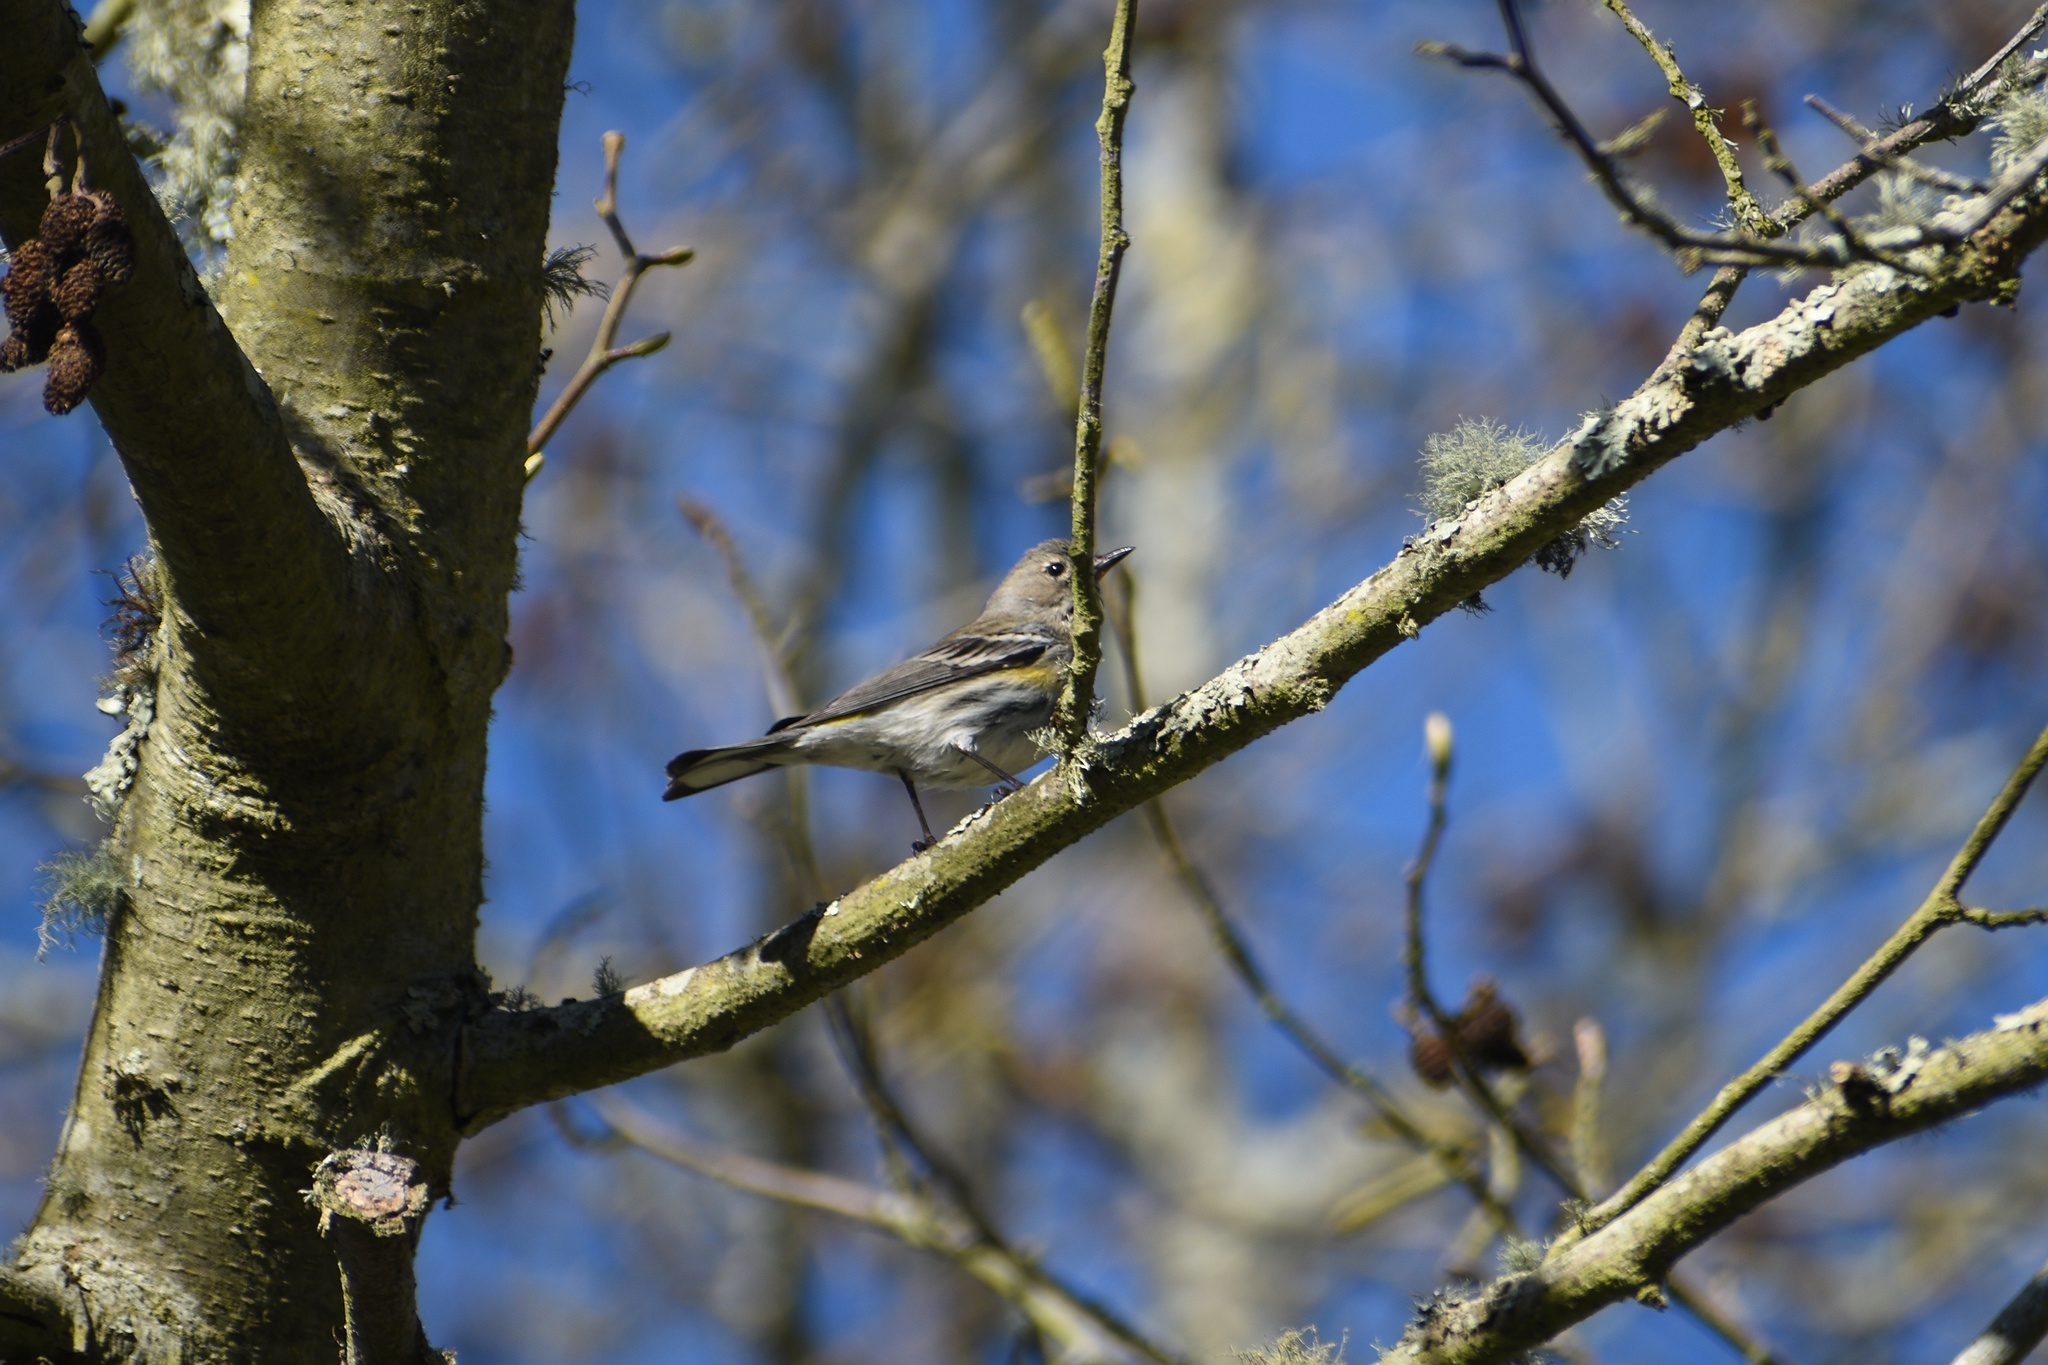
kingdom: Animalia
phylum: Chordata
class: Aves
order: Passeriformes
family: Parulidae
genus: Setophaga
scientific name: Setophaga coronata
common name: Myrtle warbler
